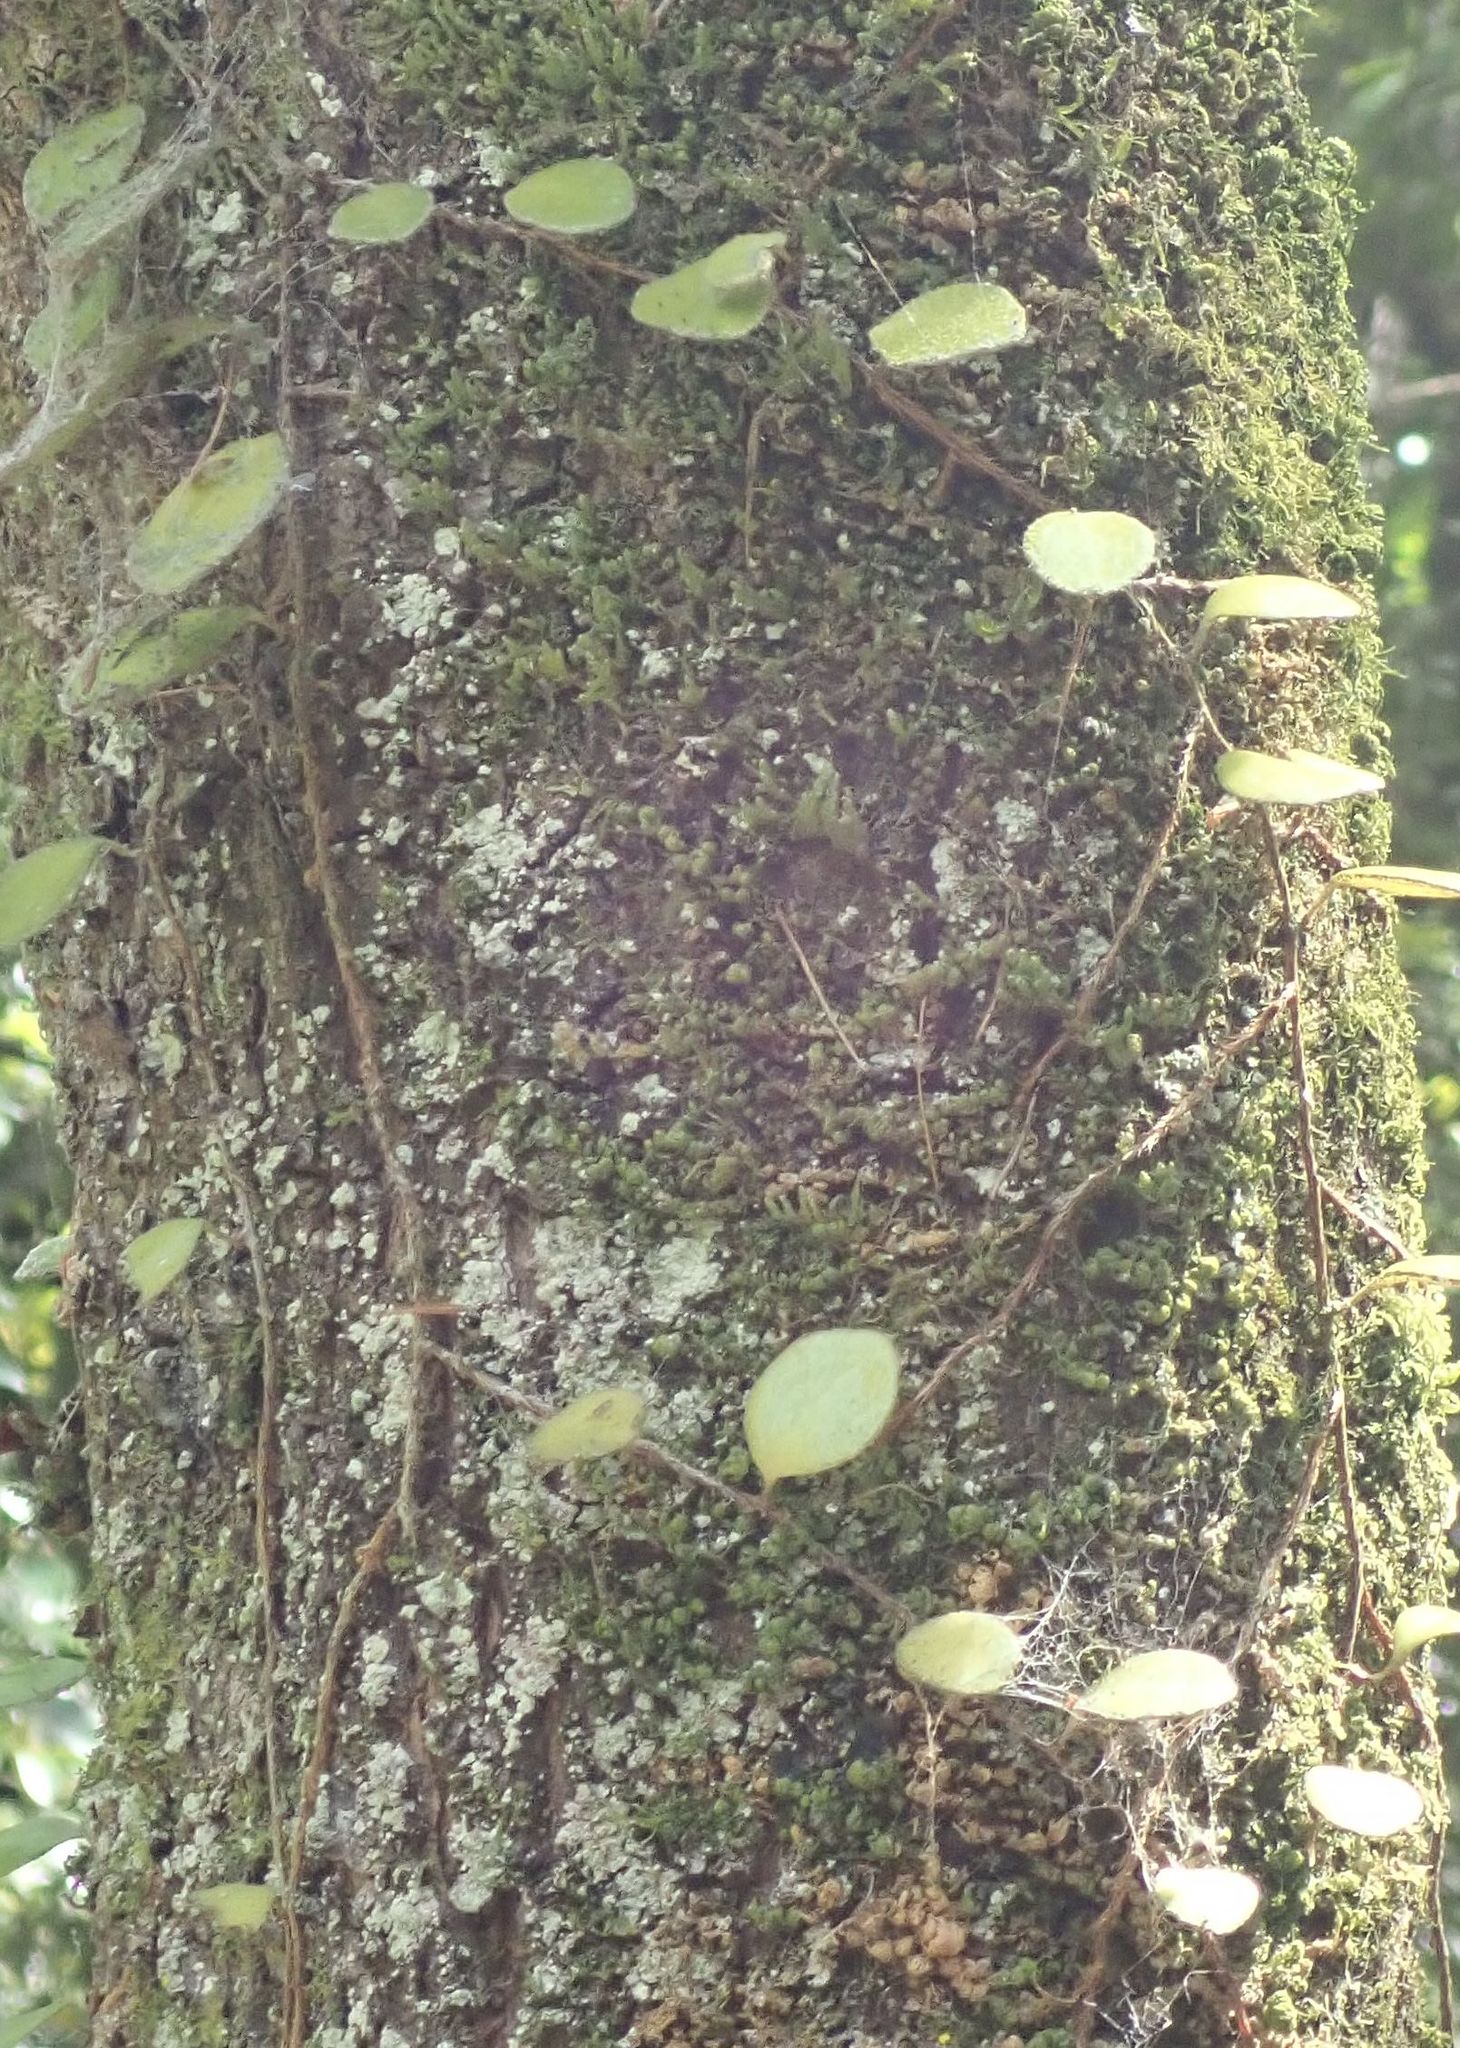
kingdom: Plantae
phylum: Tracheophyta
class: Polypodiopsida
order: Polypodiales
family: Polypodiaceae
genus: Pyrrosia
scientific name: Pyrrosia eleagnifolia
